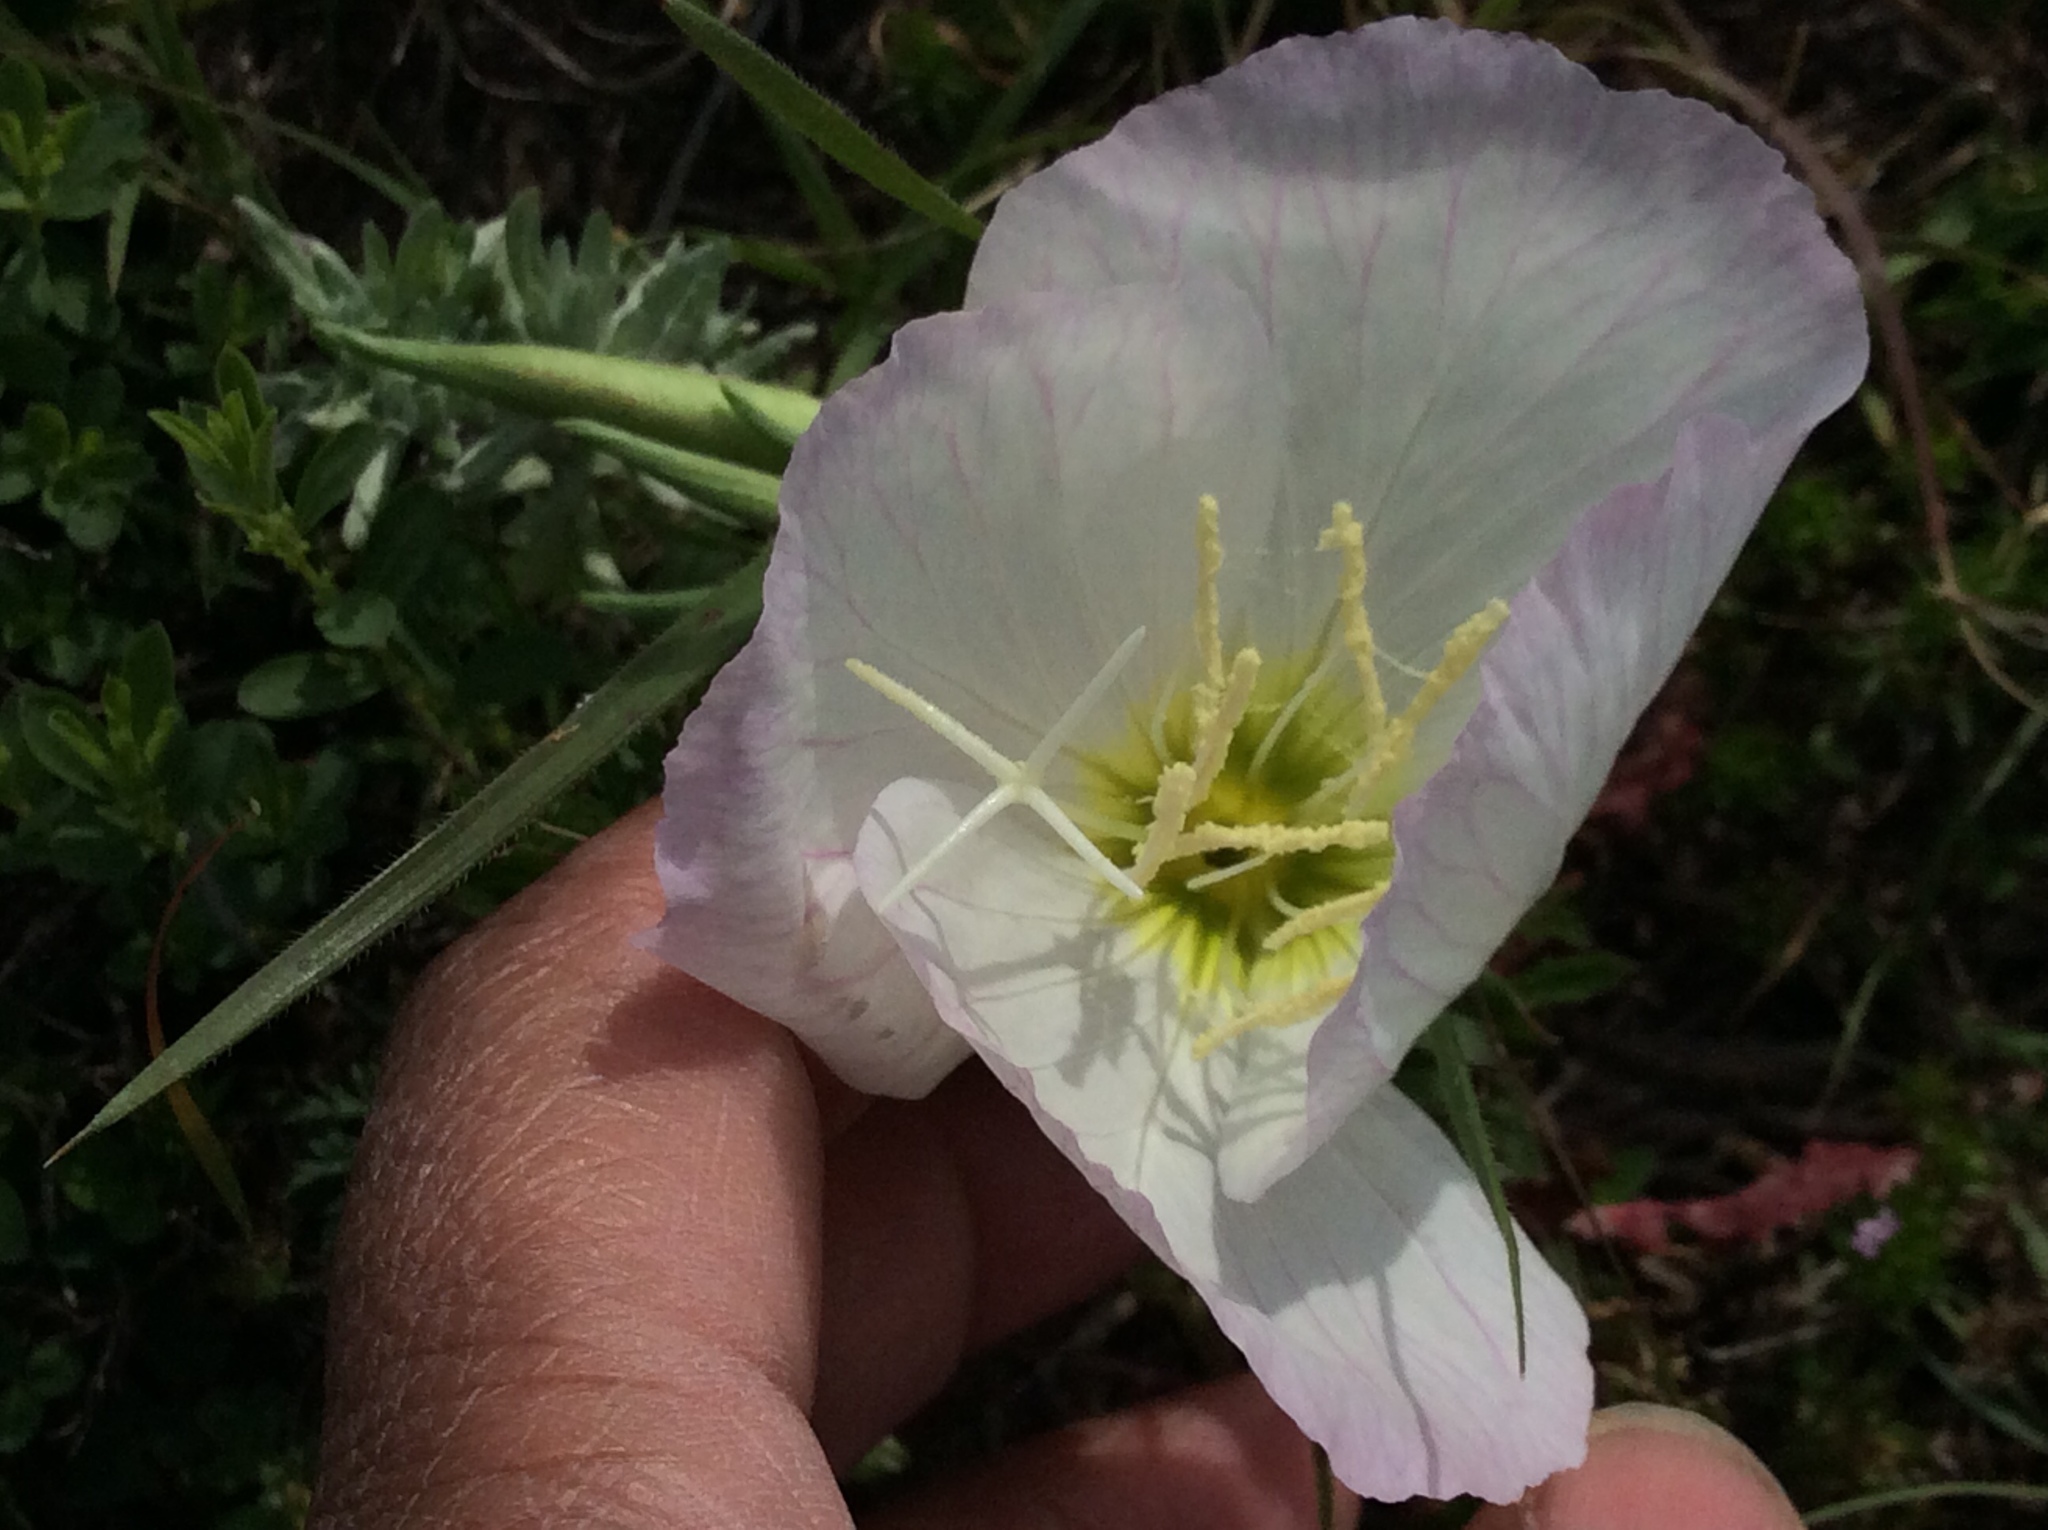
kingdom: Plantae
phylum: Tracheophyta
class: Magnoliopsida
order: Myrtales
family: Onagraceae
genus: Oenothera
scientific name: Oenothera speciosa
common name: White evening-primrose
